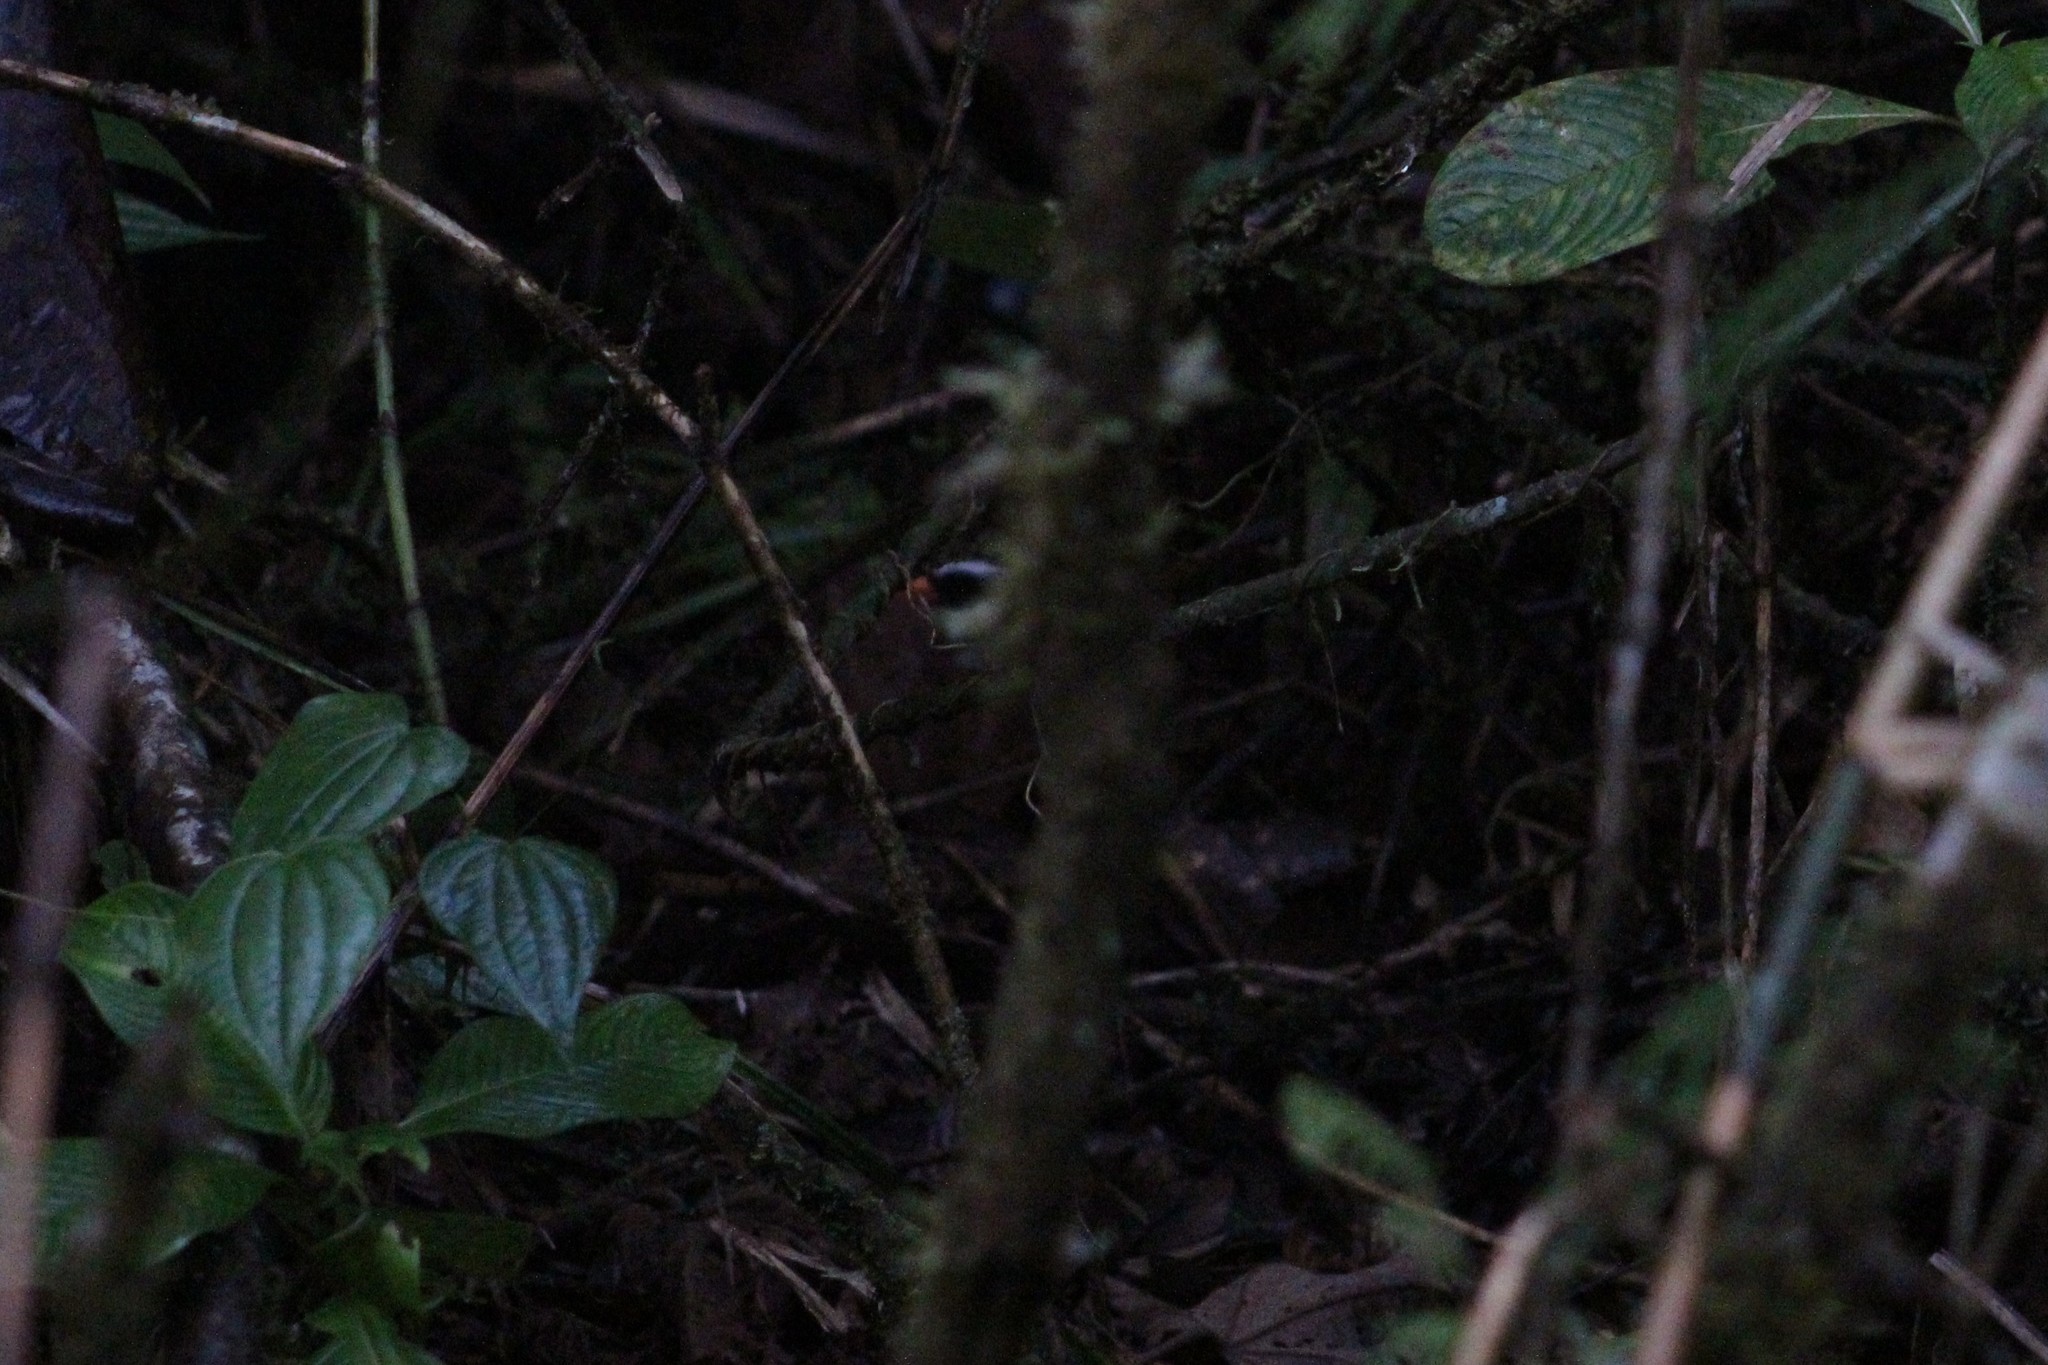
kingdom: Animalia
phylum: Chordata
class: Aves
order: Passeriformes
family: Passerellidae
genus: Arremon
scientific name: Arremon aurantiirostris
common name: Orange-billed sparrow
